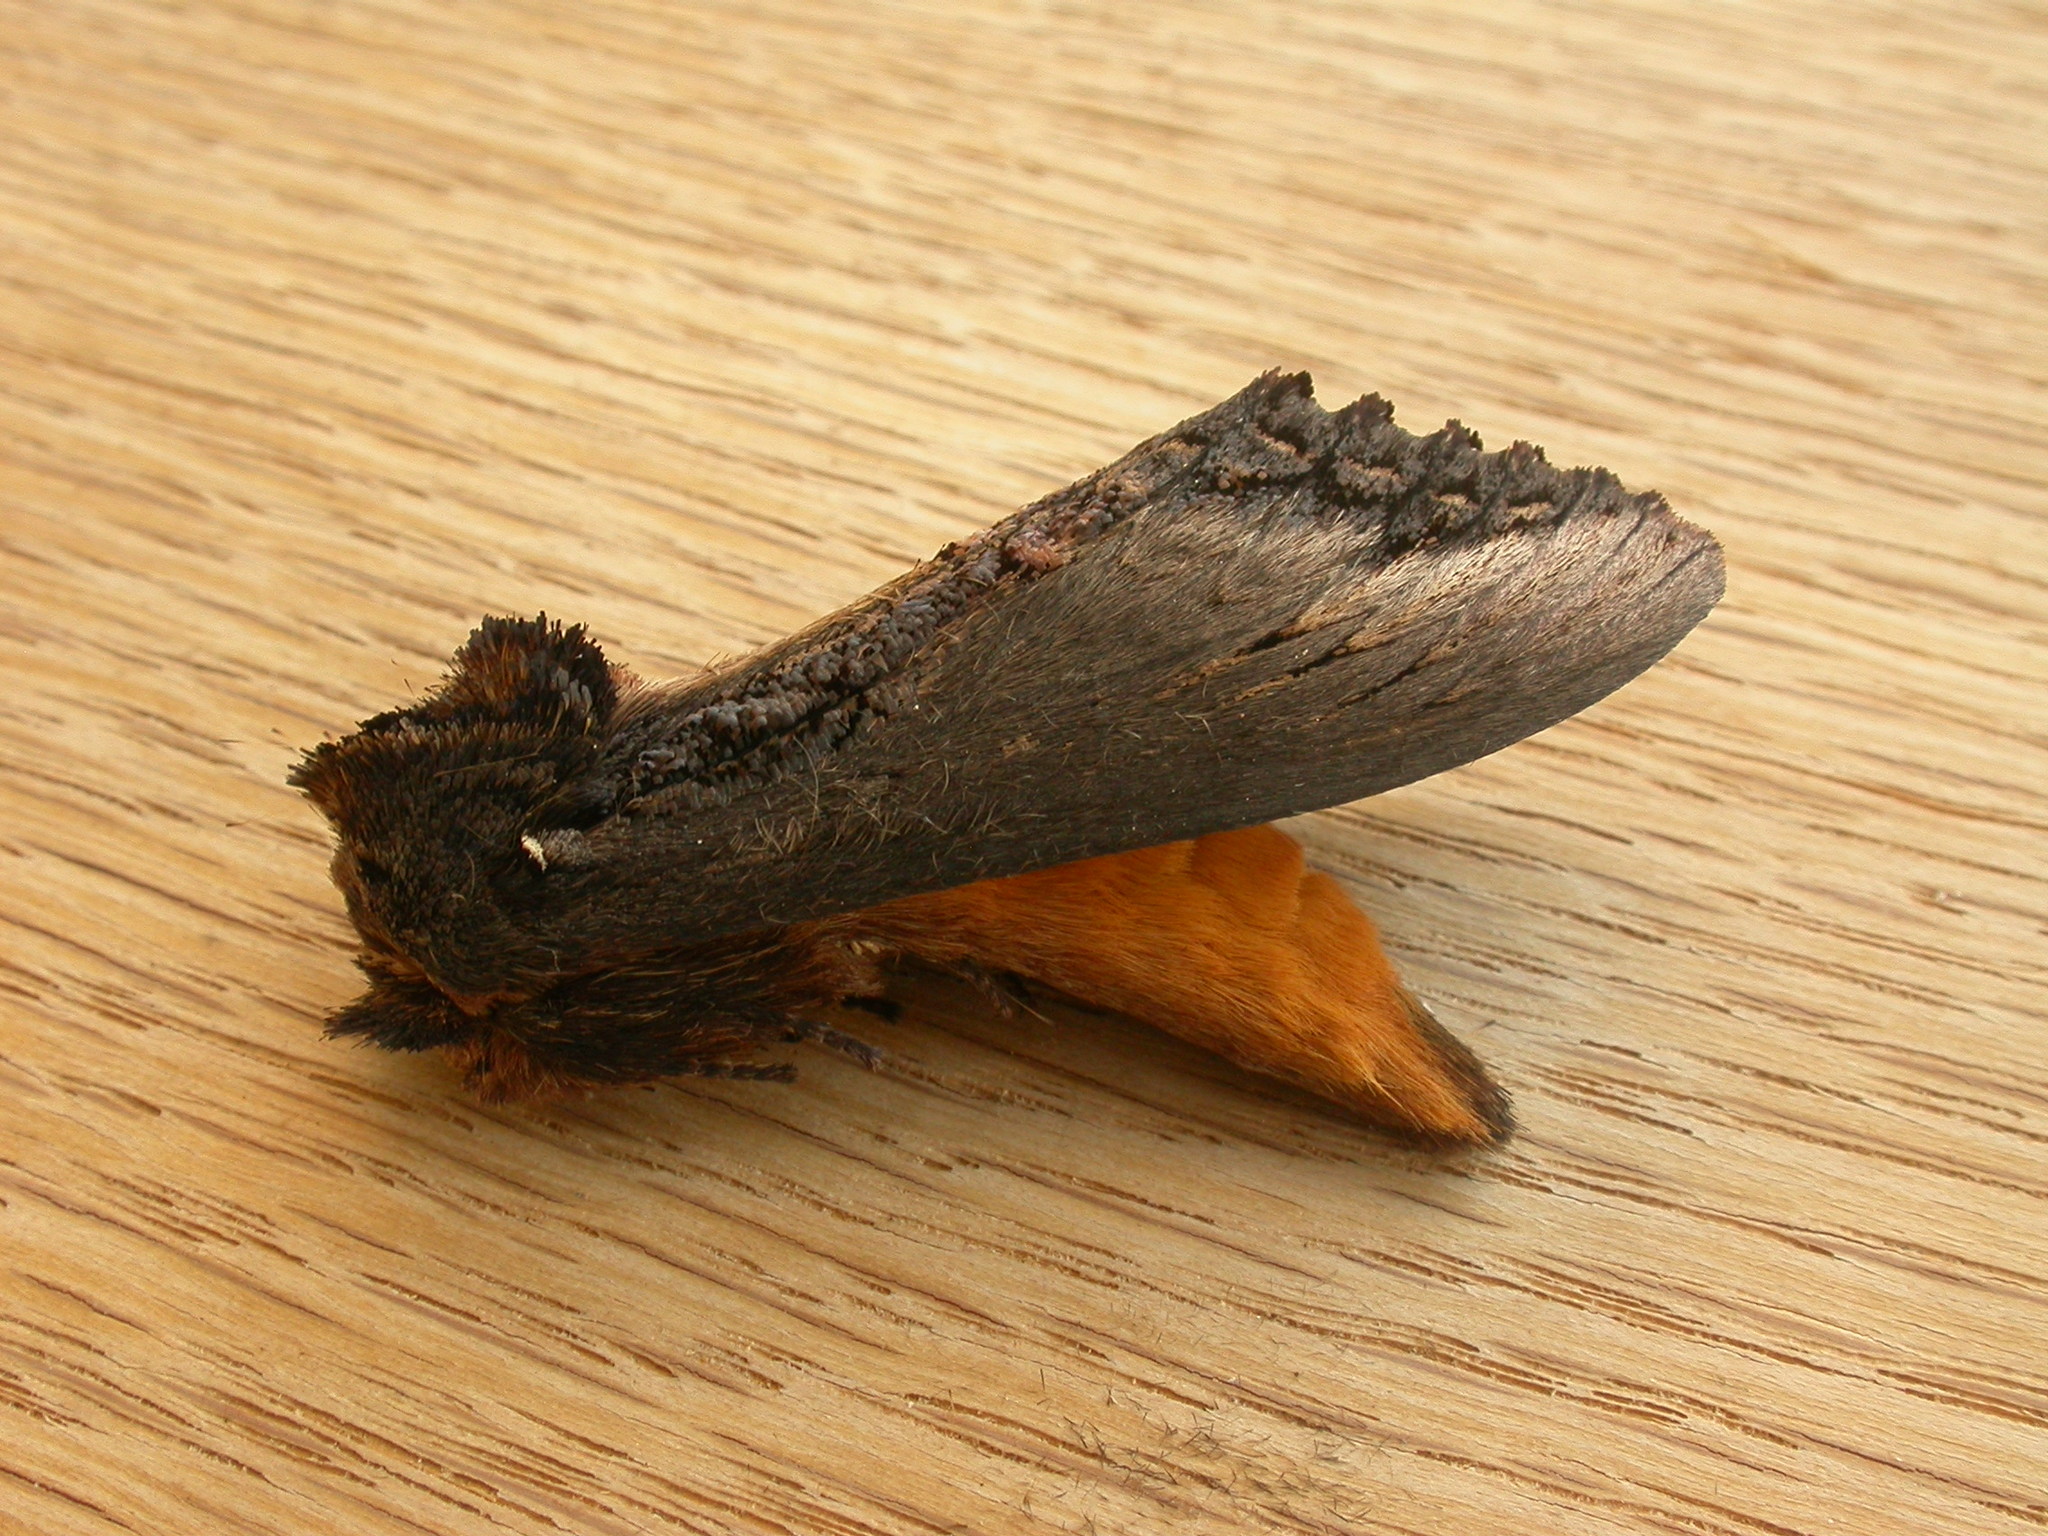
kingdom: Animalia
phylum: Arthropoda
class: Insecta
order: Lepidoptera
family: Notodontidae
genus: Hylaeora
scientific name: Hylaeora caustopis
